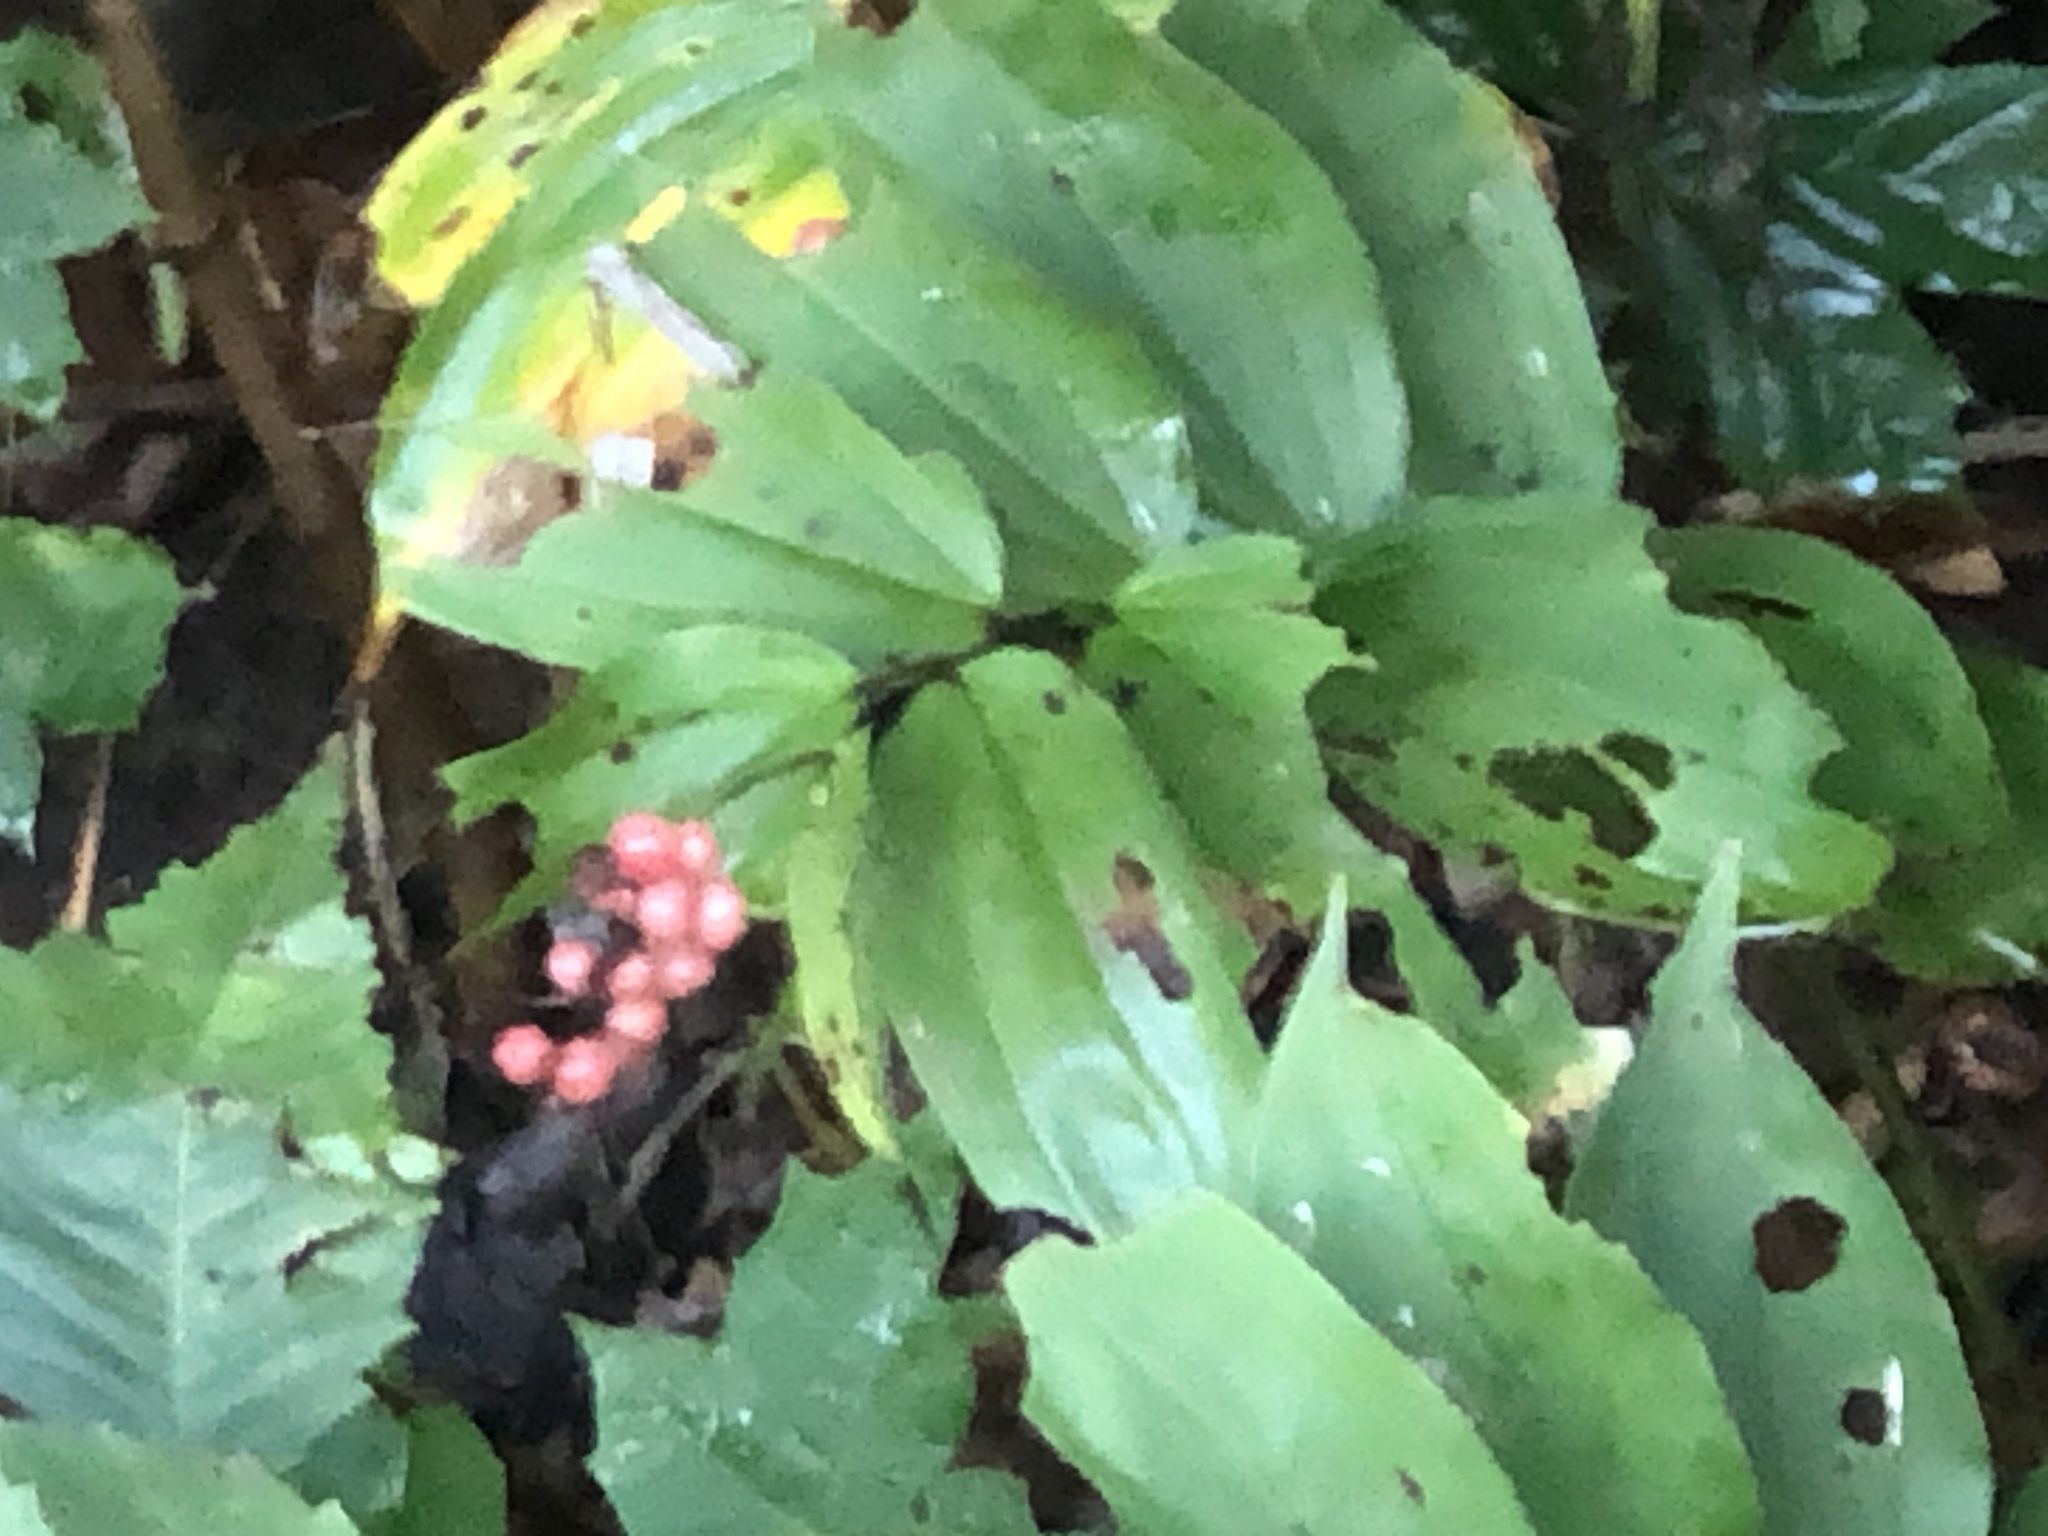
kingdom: Plantae
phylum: Tracheophyta
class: Liliopsida
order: Asparagales
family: Asparagaceae
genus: Maianthemum
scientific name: Maianthemum racemosum
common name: False spikenard
